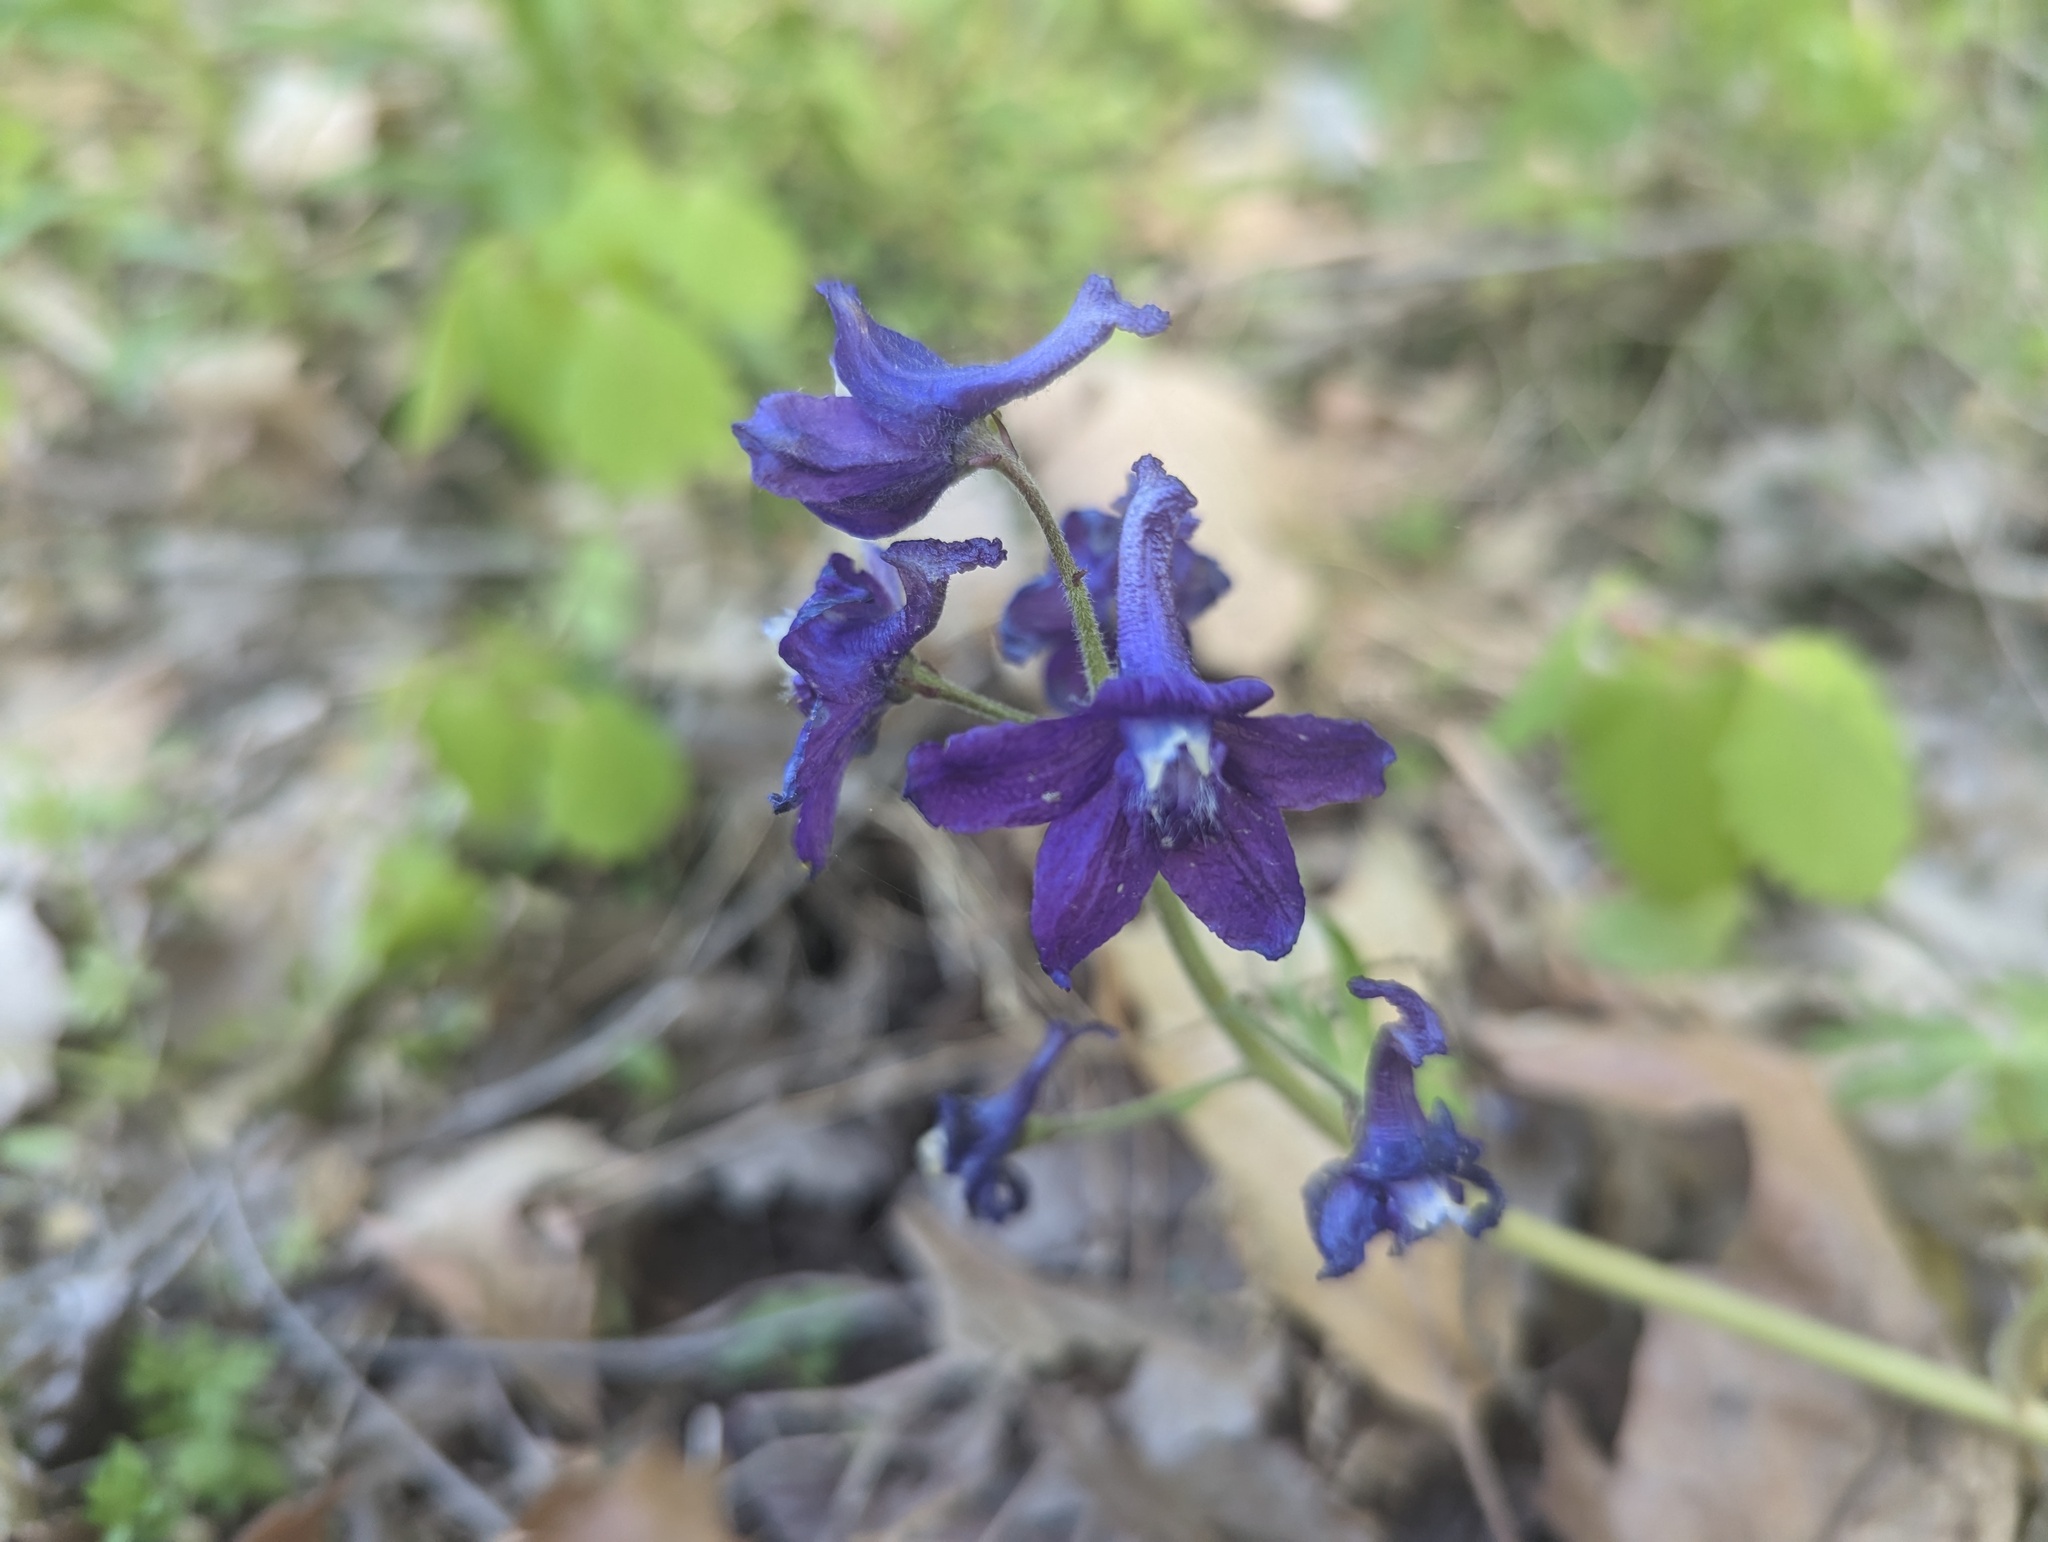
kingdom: Plantae
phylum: Tracheophyta
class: Magnoliopsida
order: Ranunculales
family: Ranunculaceae
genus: Delphinium
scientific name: Delphinium tricorne
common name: Dwarf larkspur
